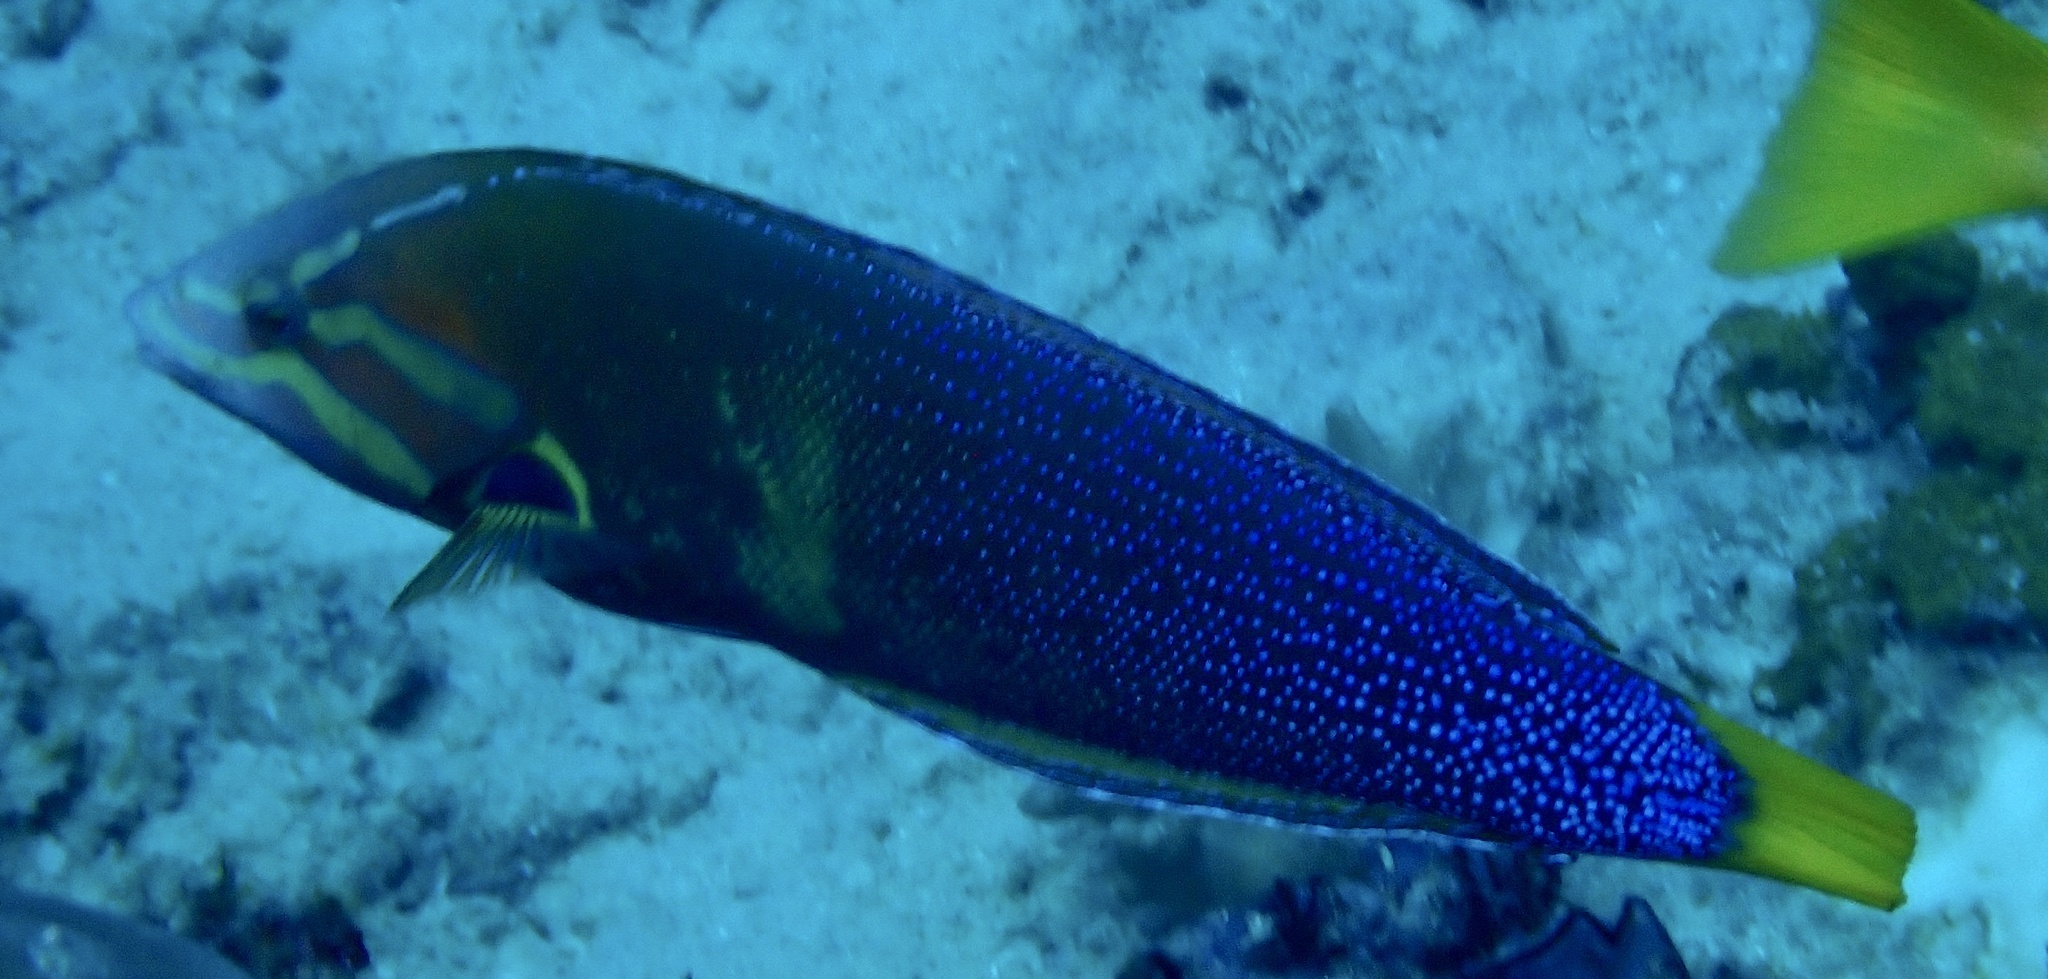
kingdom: Animalia
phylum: Chordata
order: Perciformes
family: Labridae
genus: Coris
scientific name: Coris gaimard
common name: Yellowtail coris
